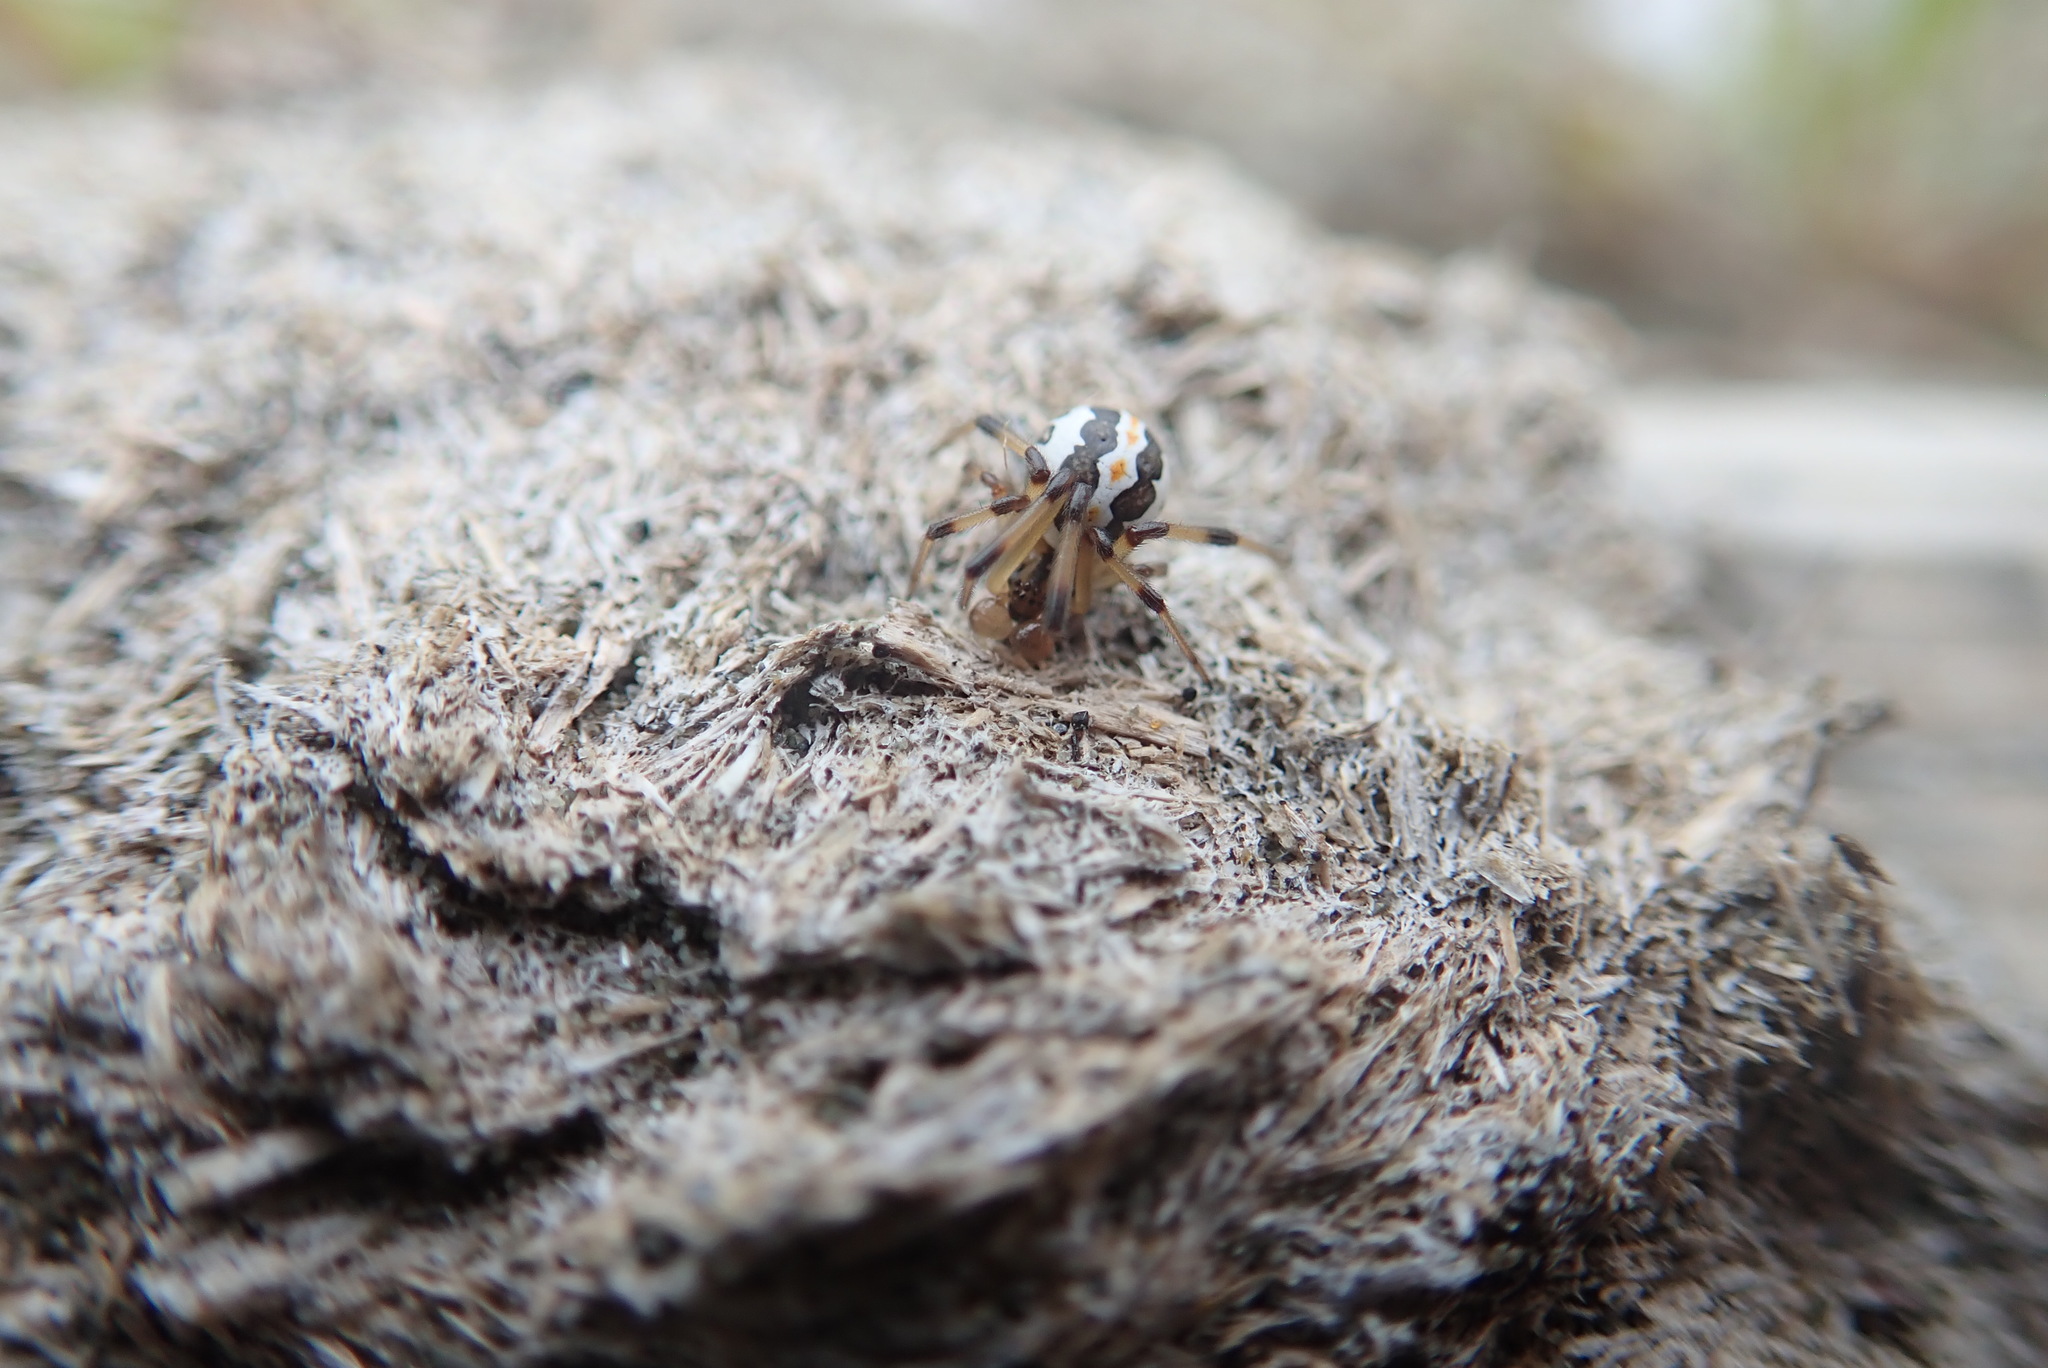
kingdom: Animalia
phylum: Arthropoda
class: Arachnida
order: Araneae
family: Theridiidae
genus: Latrodectus
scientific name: Latrodectus katipo
